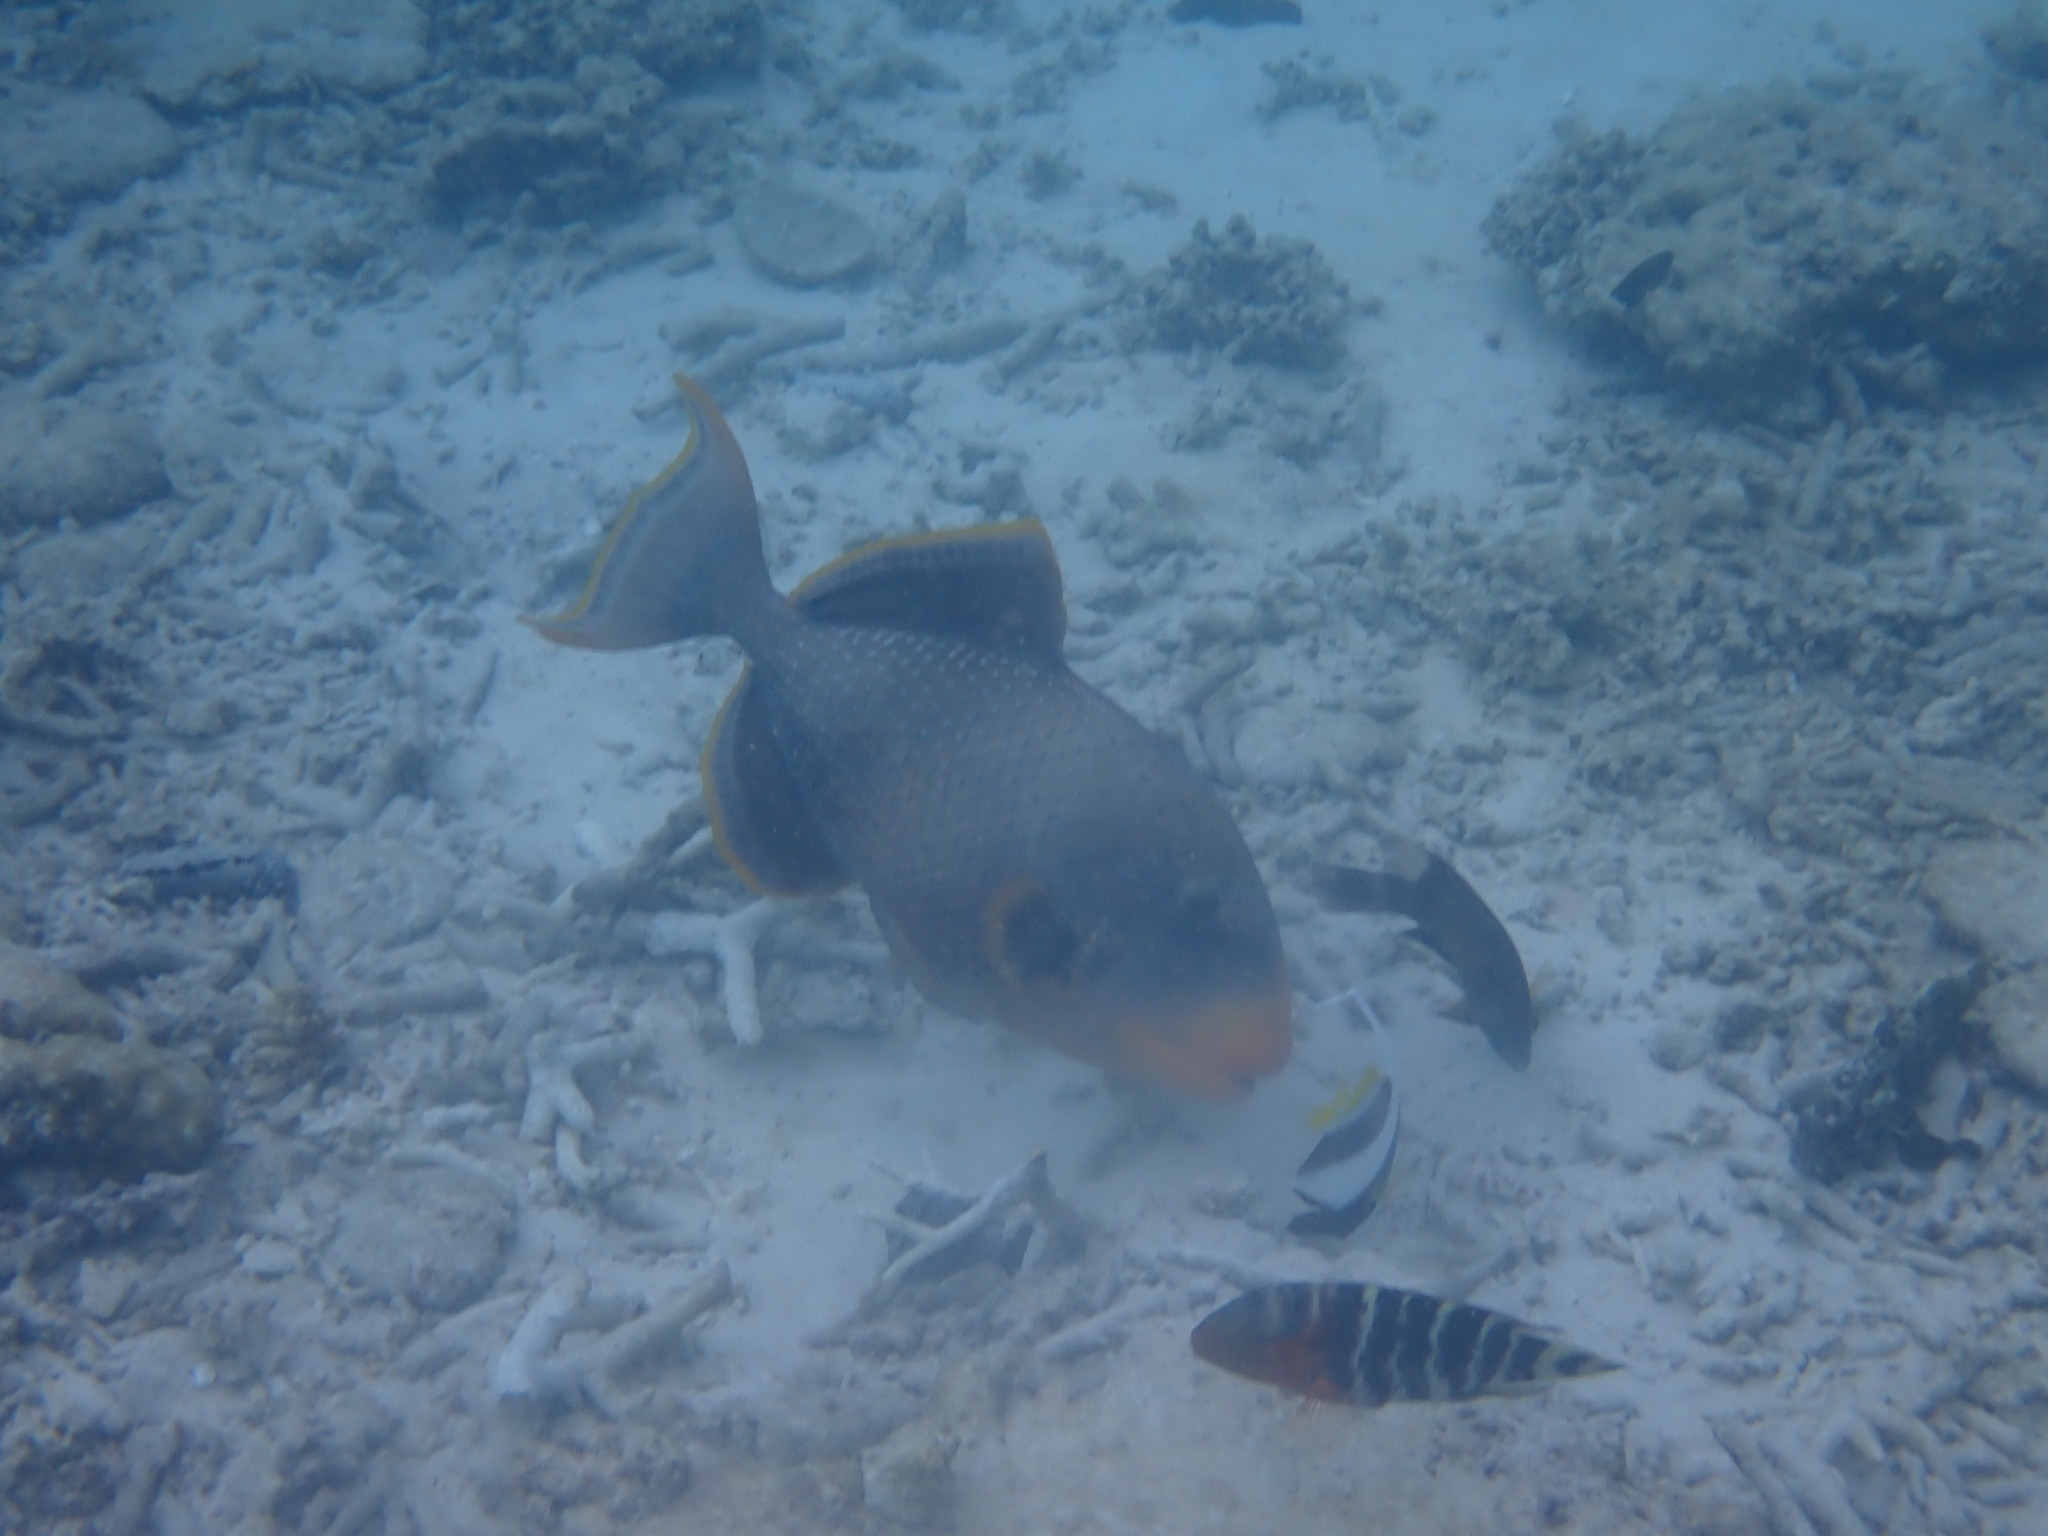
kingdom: Animalia
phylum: Chordata
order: Tetraodontiformes
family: Balistidae
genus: Pseudobalistes
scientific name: Pseudobalistes flavimarginatus
